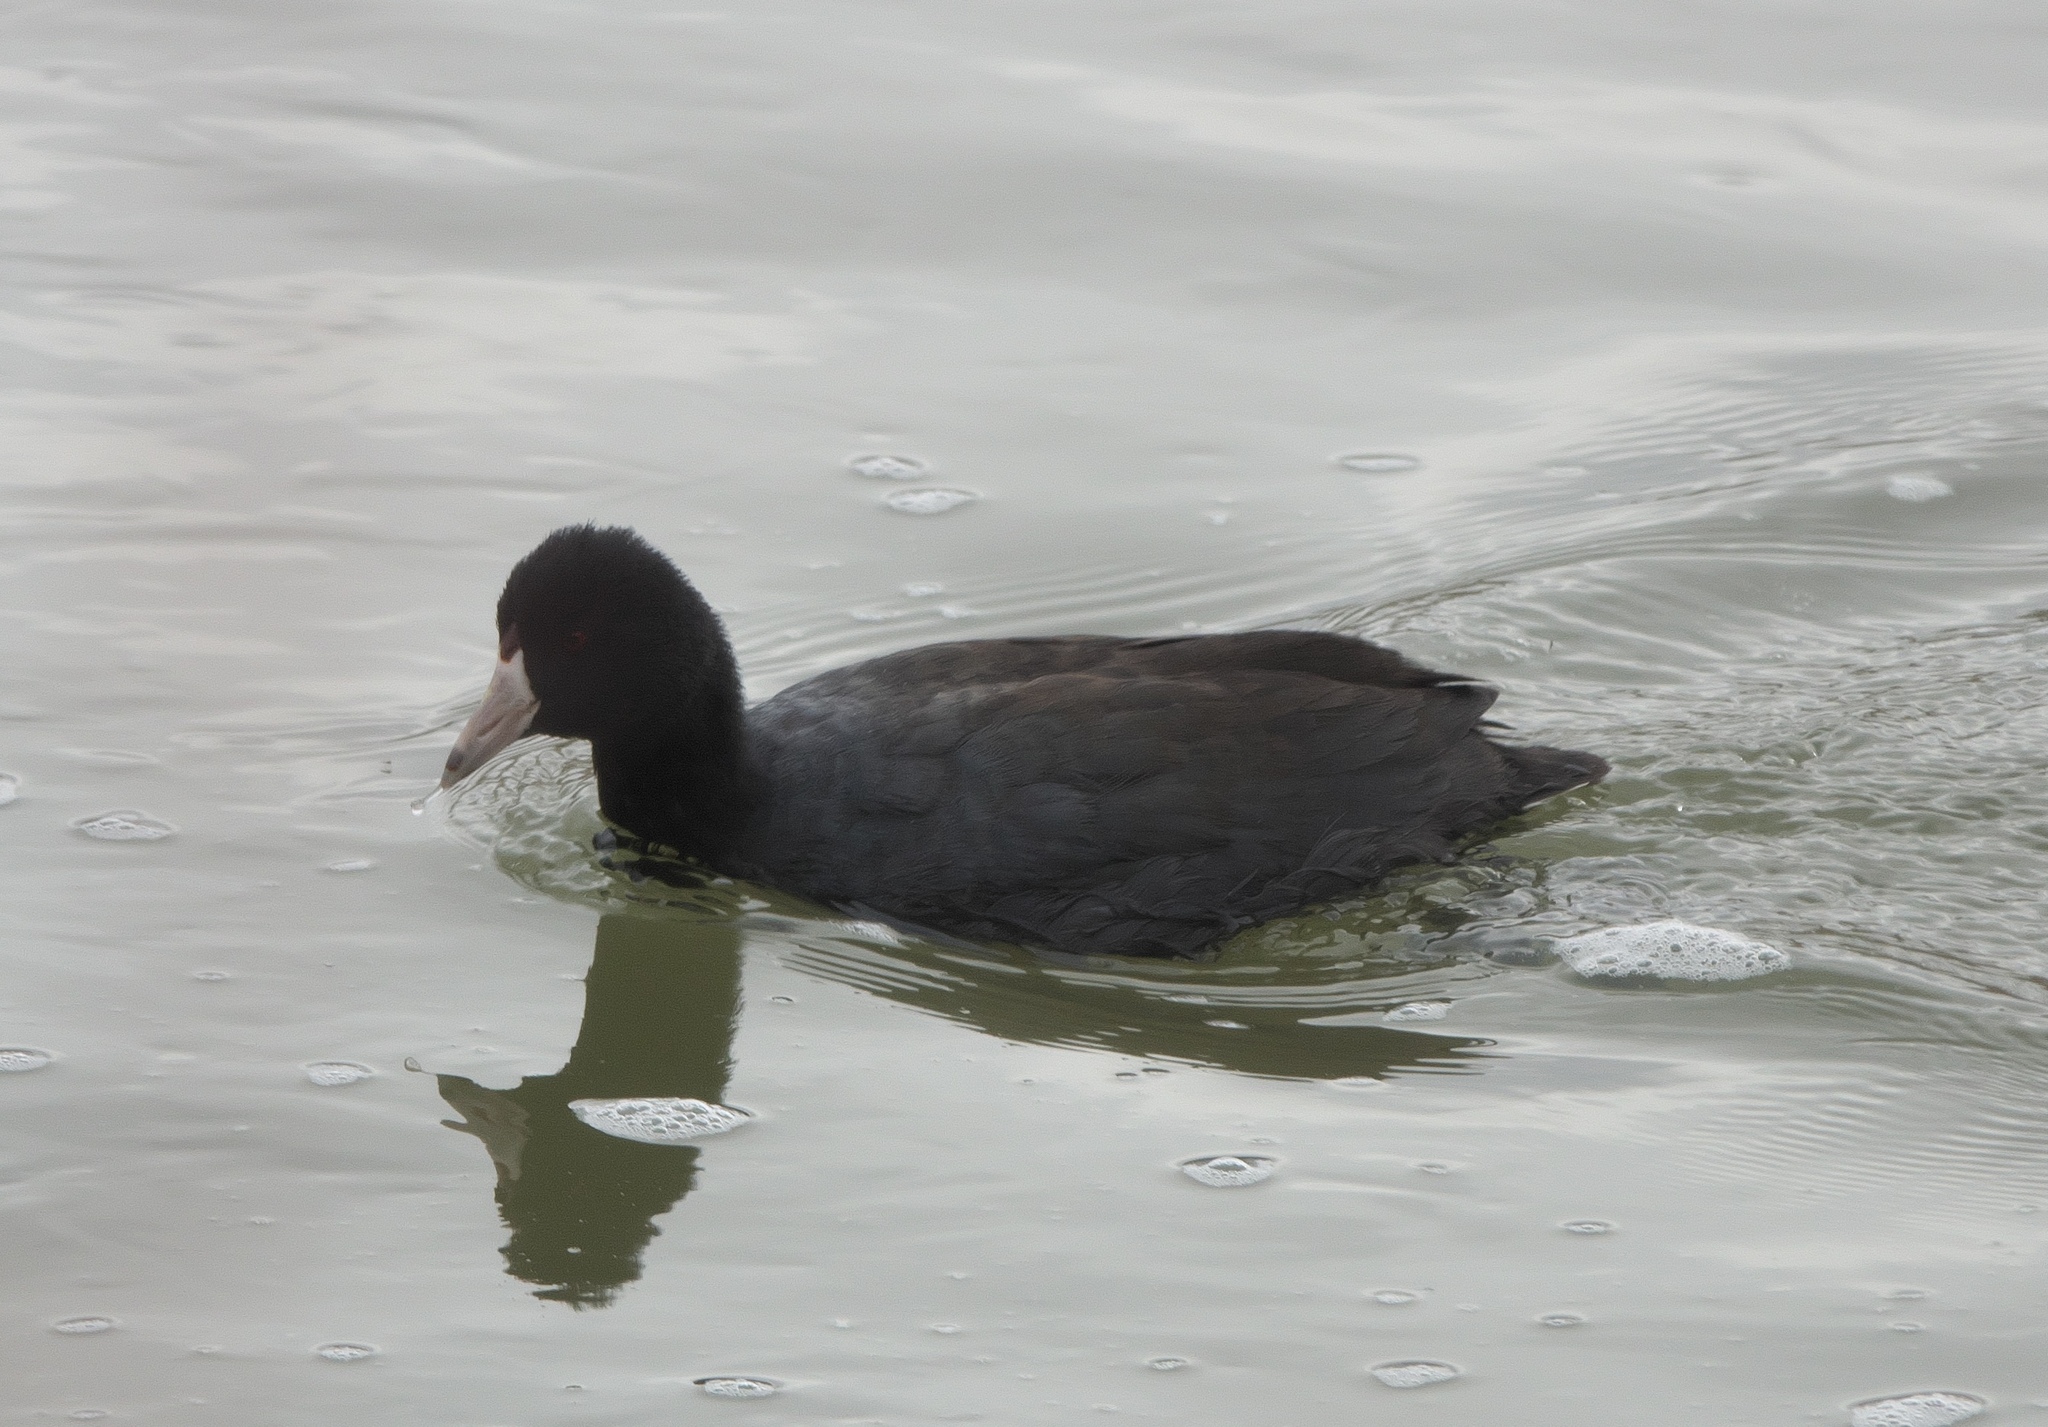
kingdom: Animalia
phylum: Chordata
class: Aves
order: Gruiformes
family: Rallidae
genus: Fulica
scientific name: Fulica americana
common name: American coot
